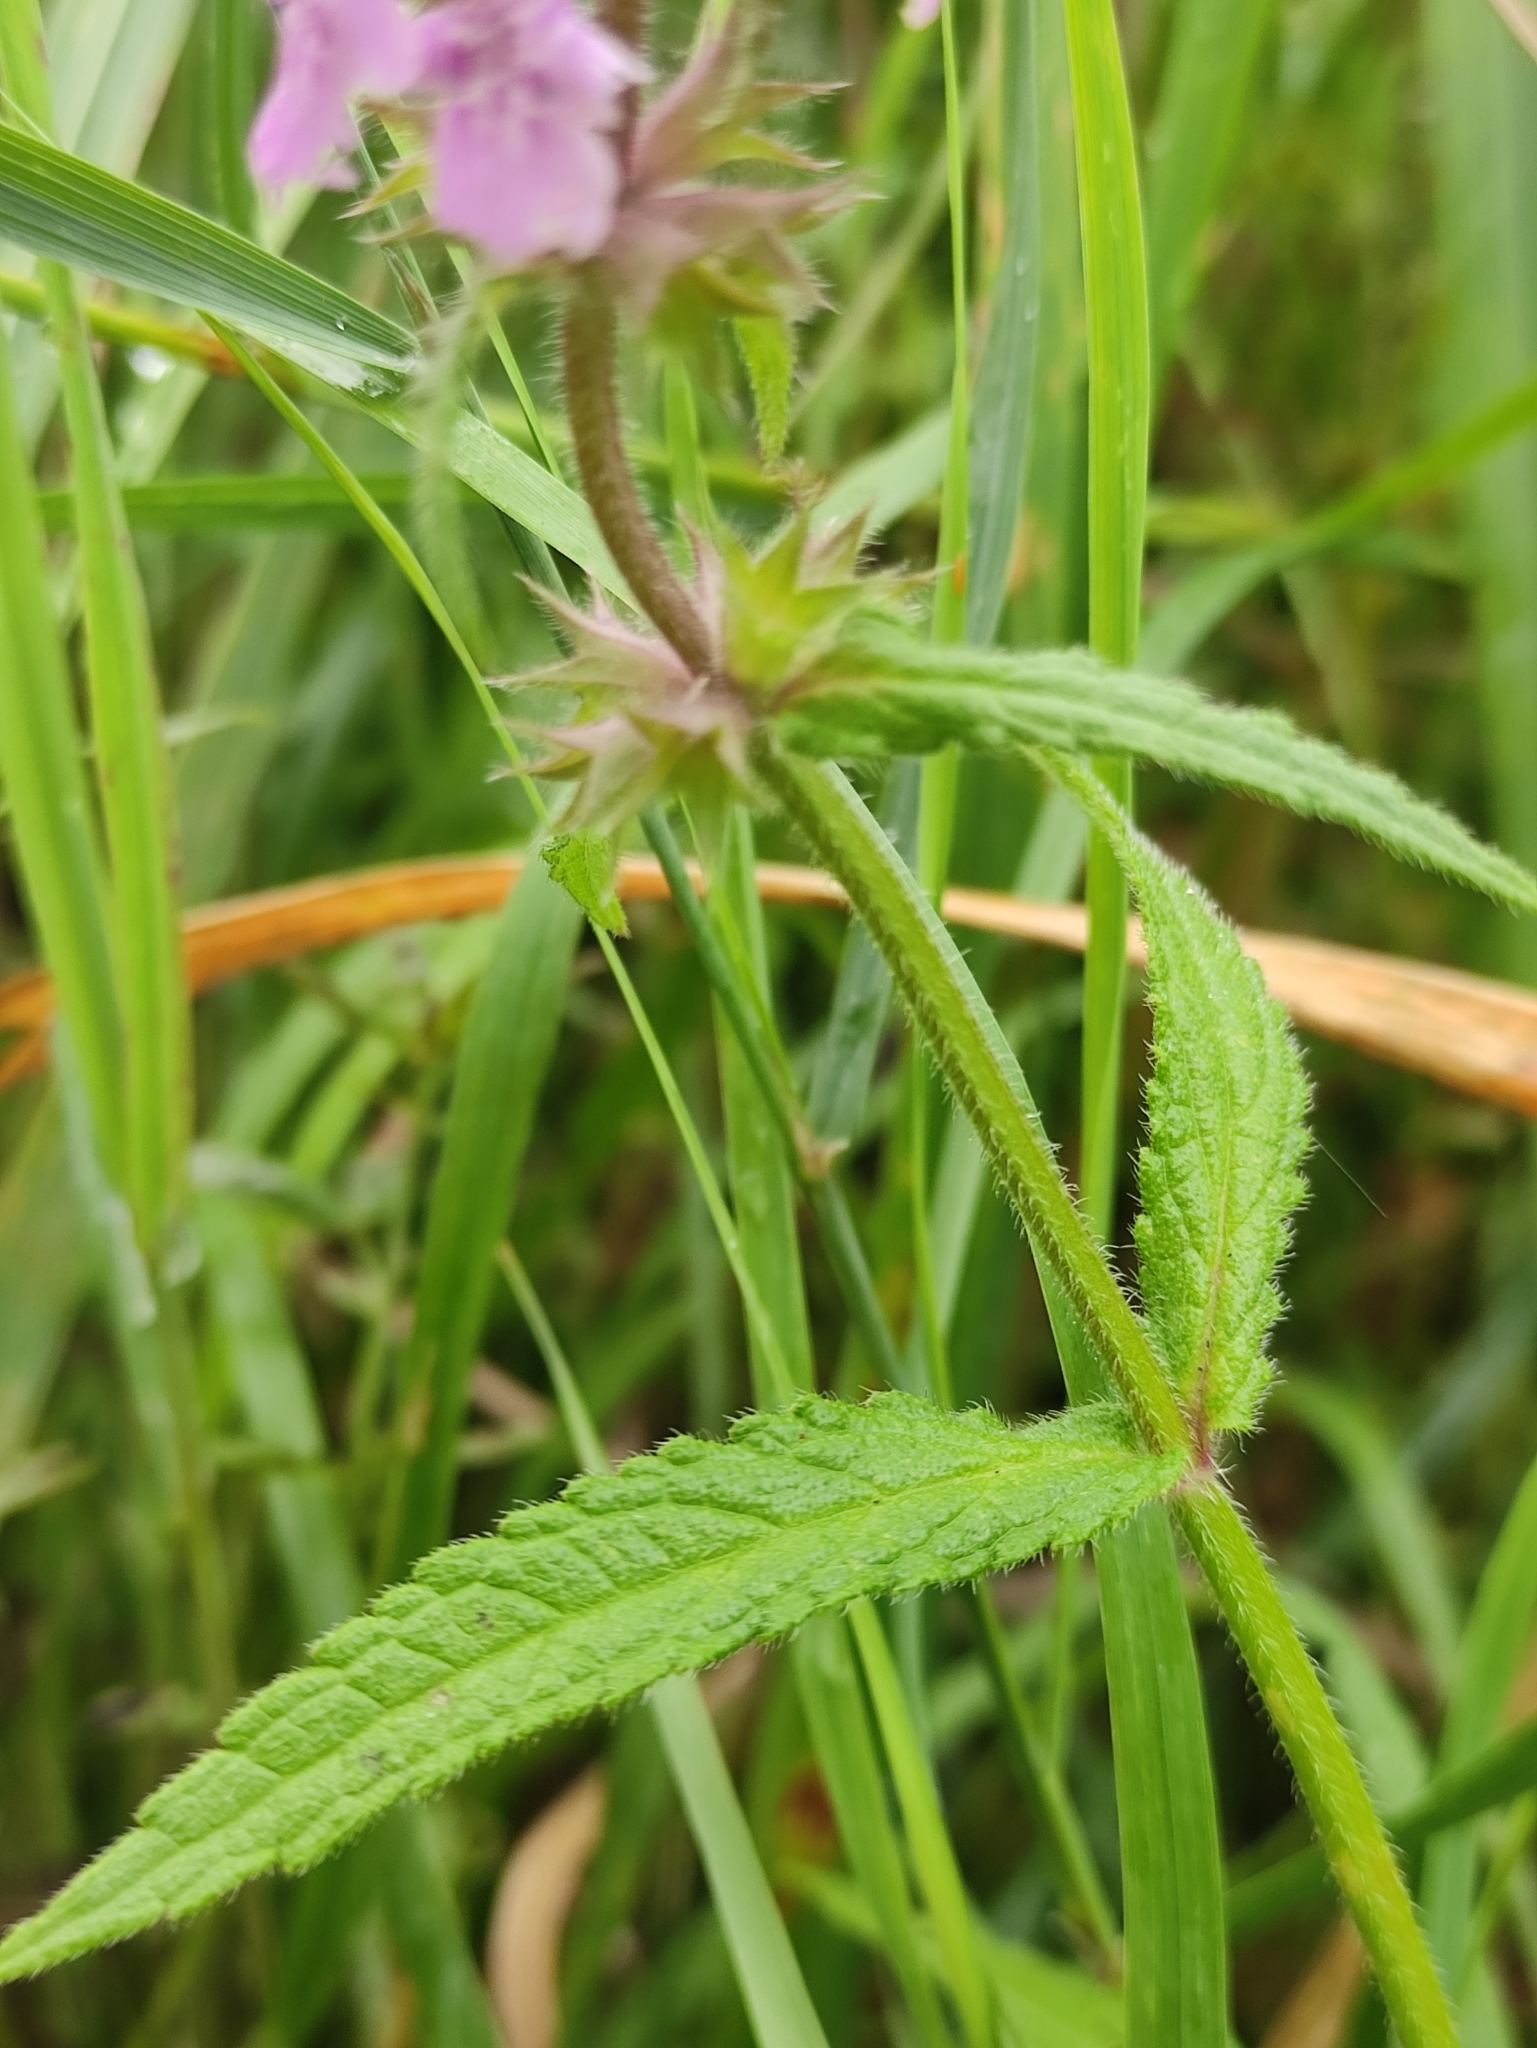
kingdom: Plantae
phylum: Tracheophyta
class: Magnoliopsida
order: Lamiales
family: Lamiaceae
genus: Stachys
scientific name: Stachys aspera
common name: Hyssopleaf hedgenettle
